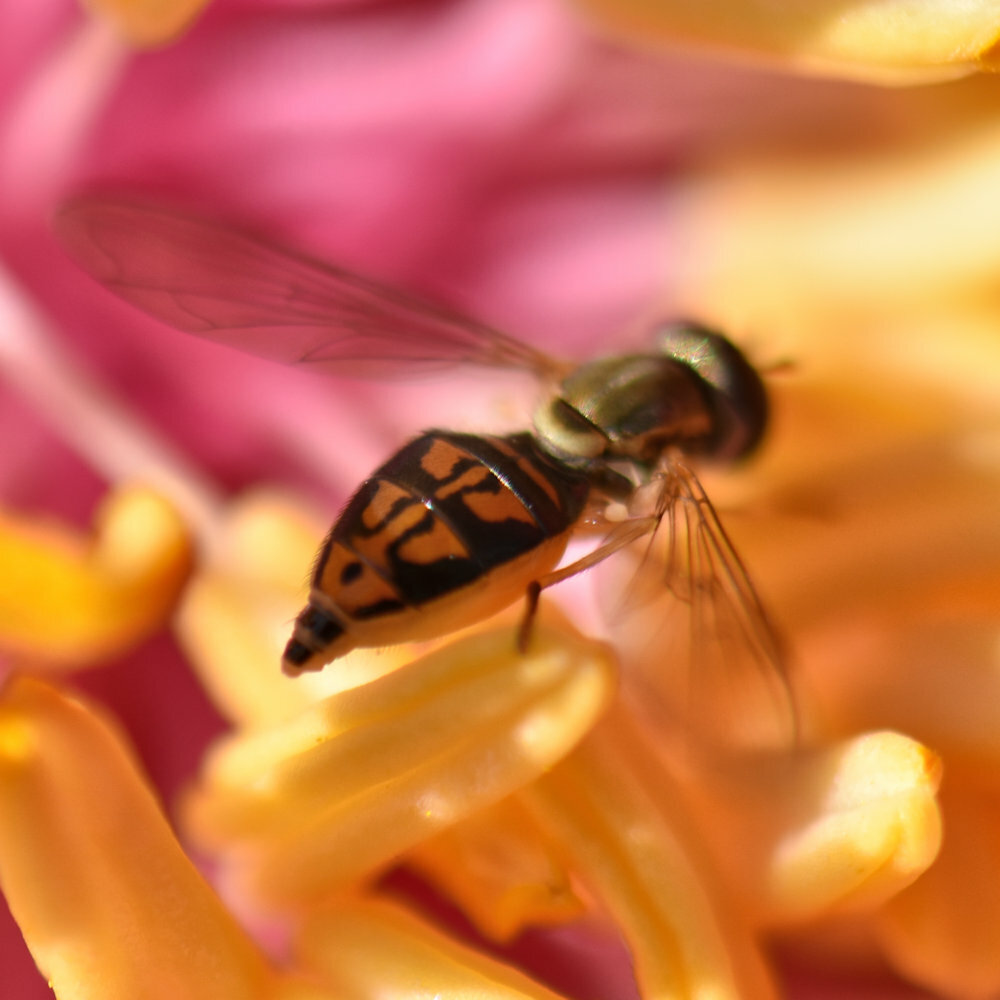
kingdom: Animalia
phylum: Arthropoda
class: Insecta
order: Diptera
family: Syrphidae
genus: Toxomerus
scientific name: Toxomerus marginatus
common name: Syrphid fly
